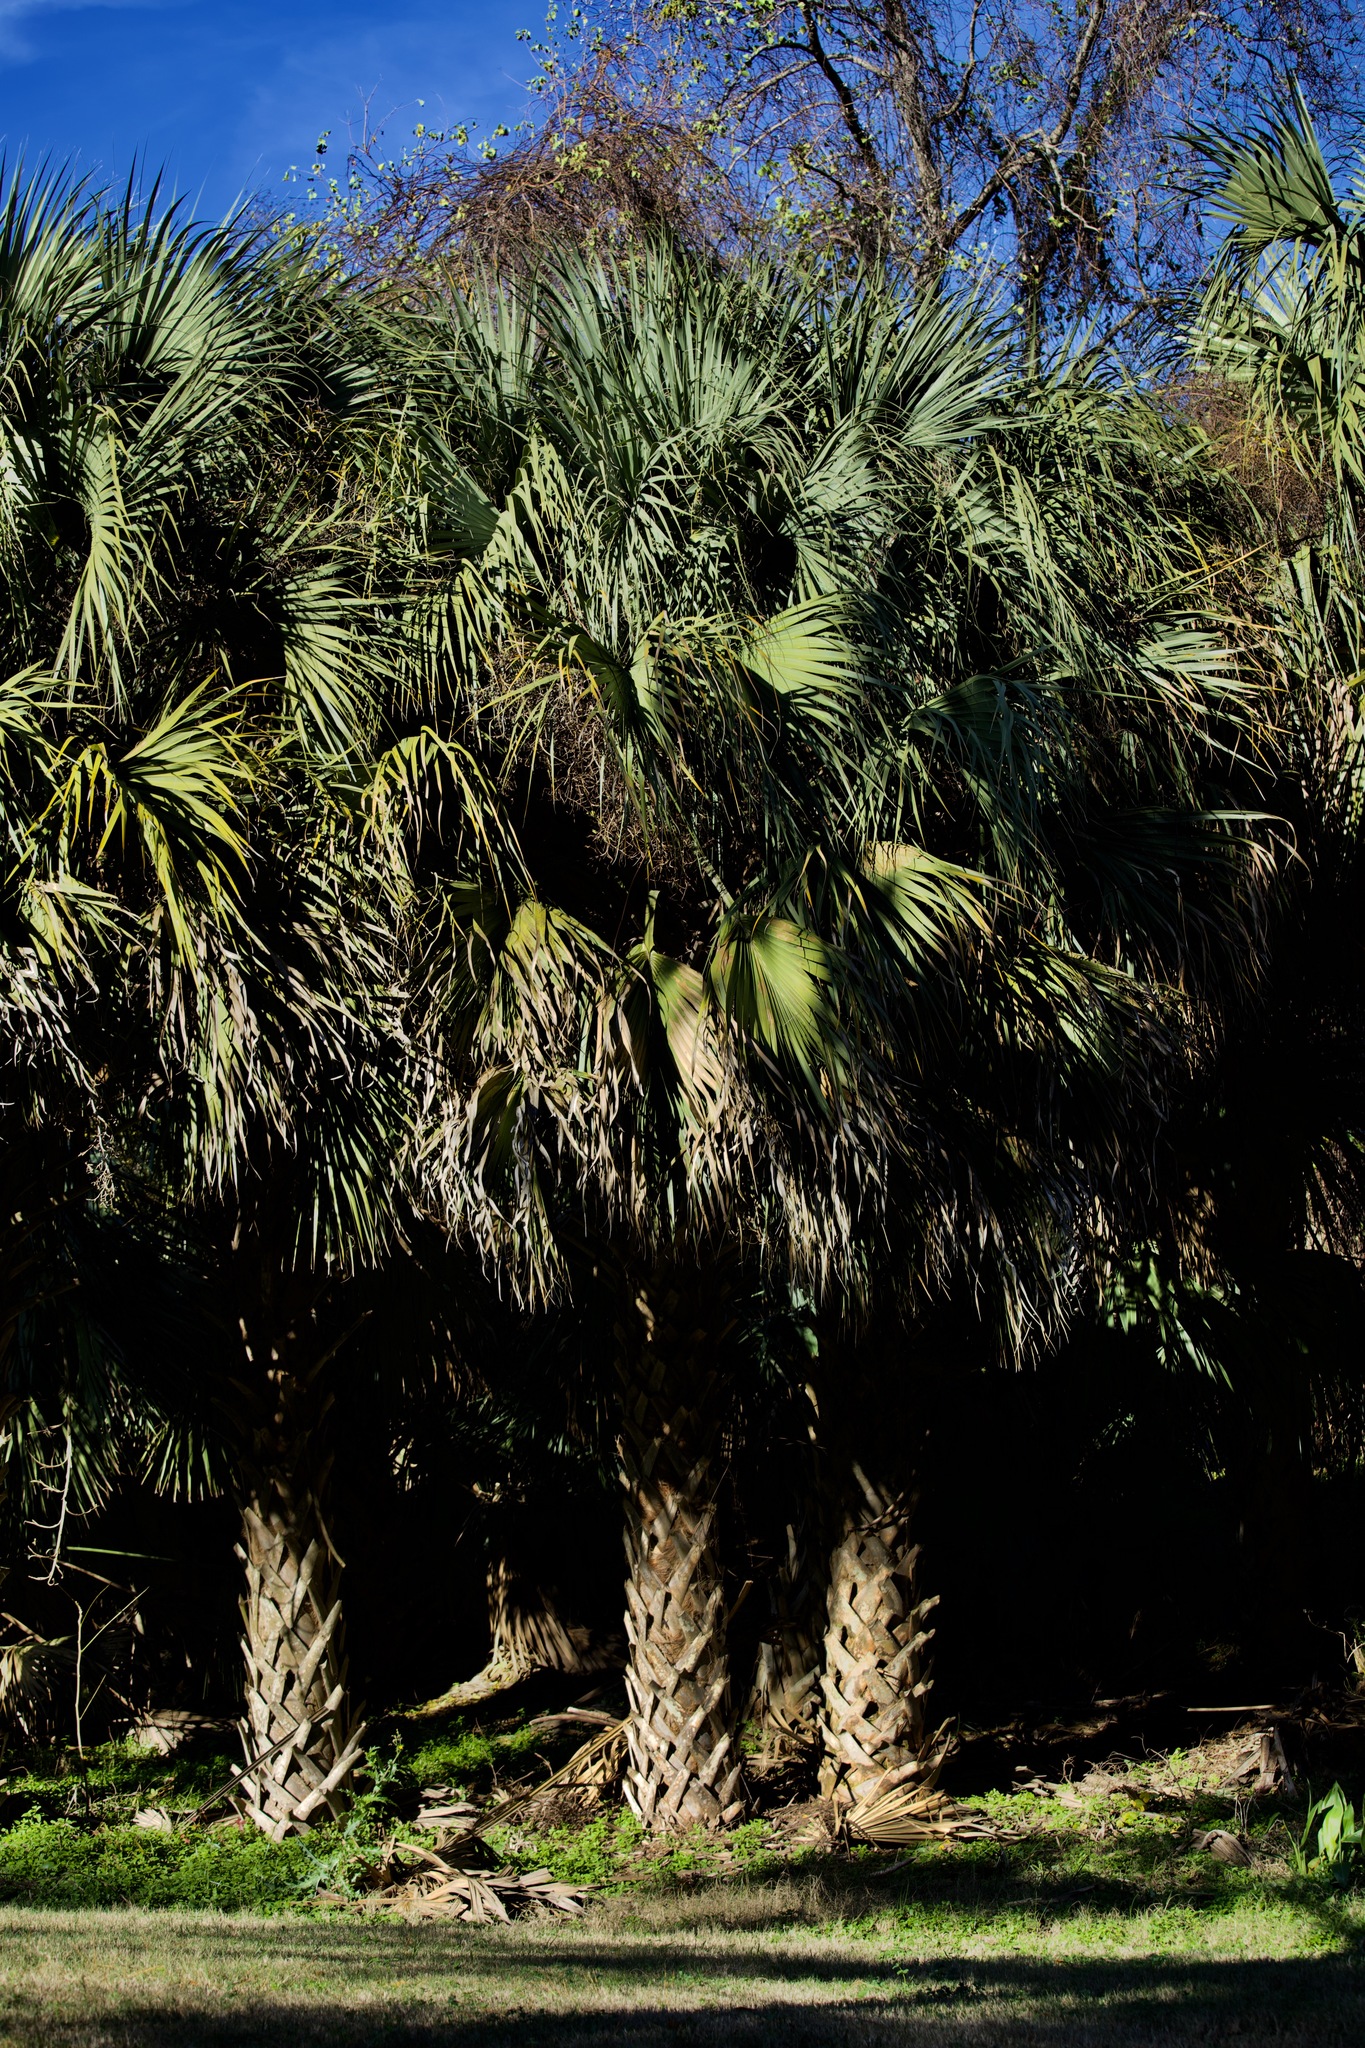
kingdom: Plantae
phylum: Tracheophyta
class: Liliopsida
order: Arecales
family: Arecaceae
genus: Sabal
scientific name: Sabal palmetto
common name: Blue palmetto
